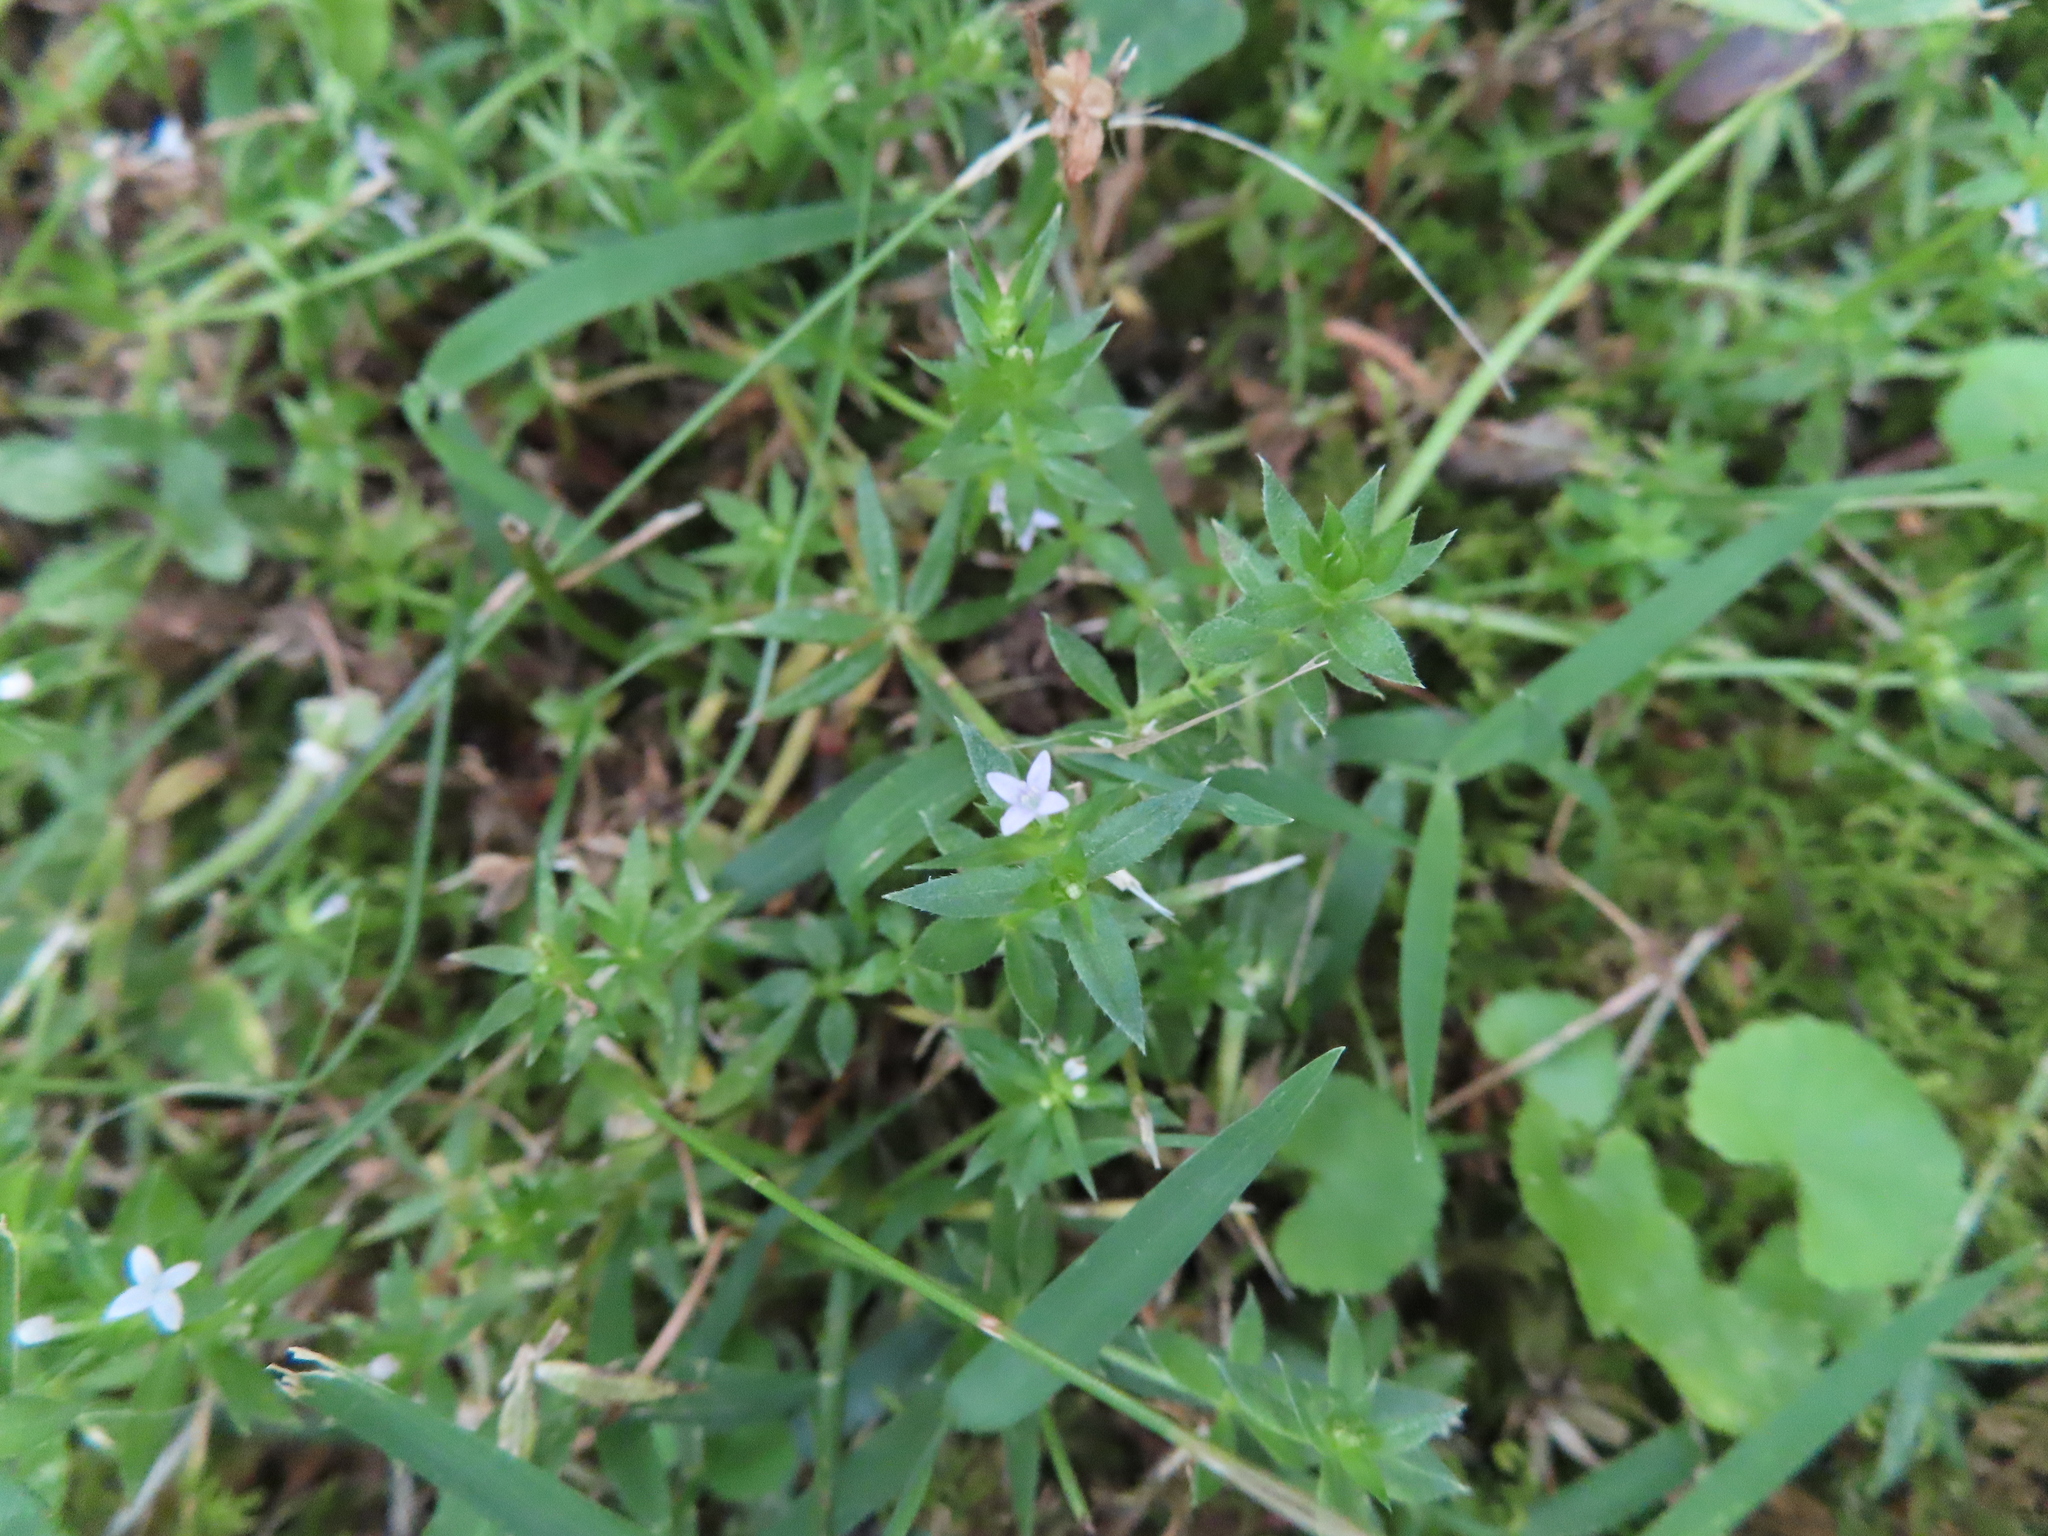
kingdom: Plantae
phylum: Tracheophyta
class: Magnoliopsida
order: Gentianales
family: Rubiaceae
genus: Sherardia
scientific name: Sherardia arvensis
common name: Field madder
